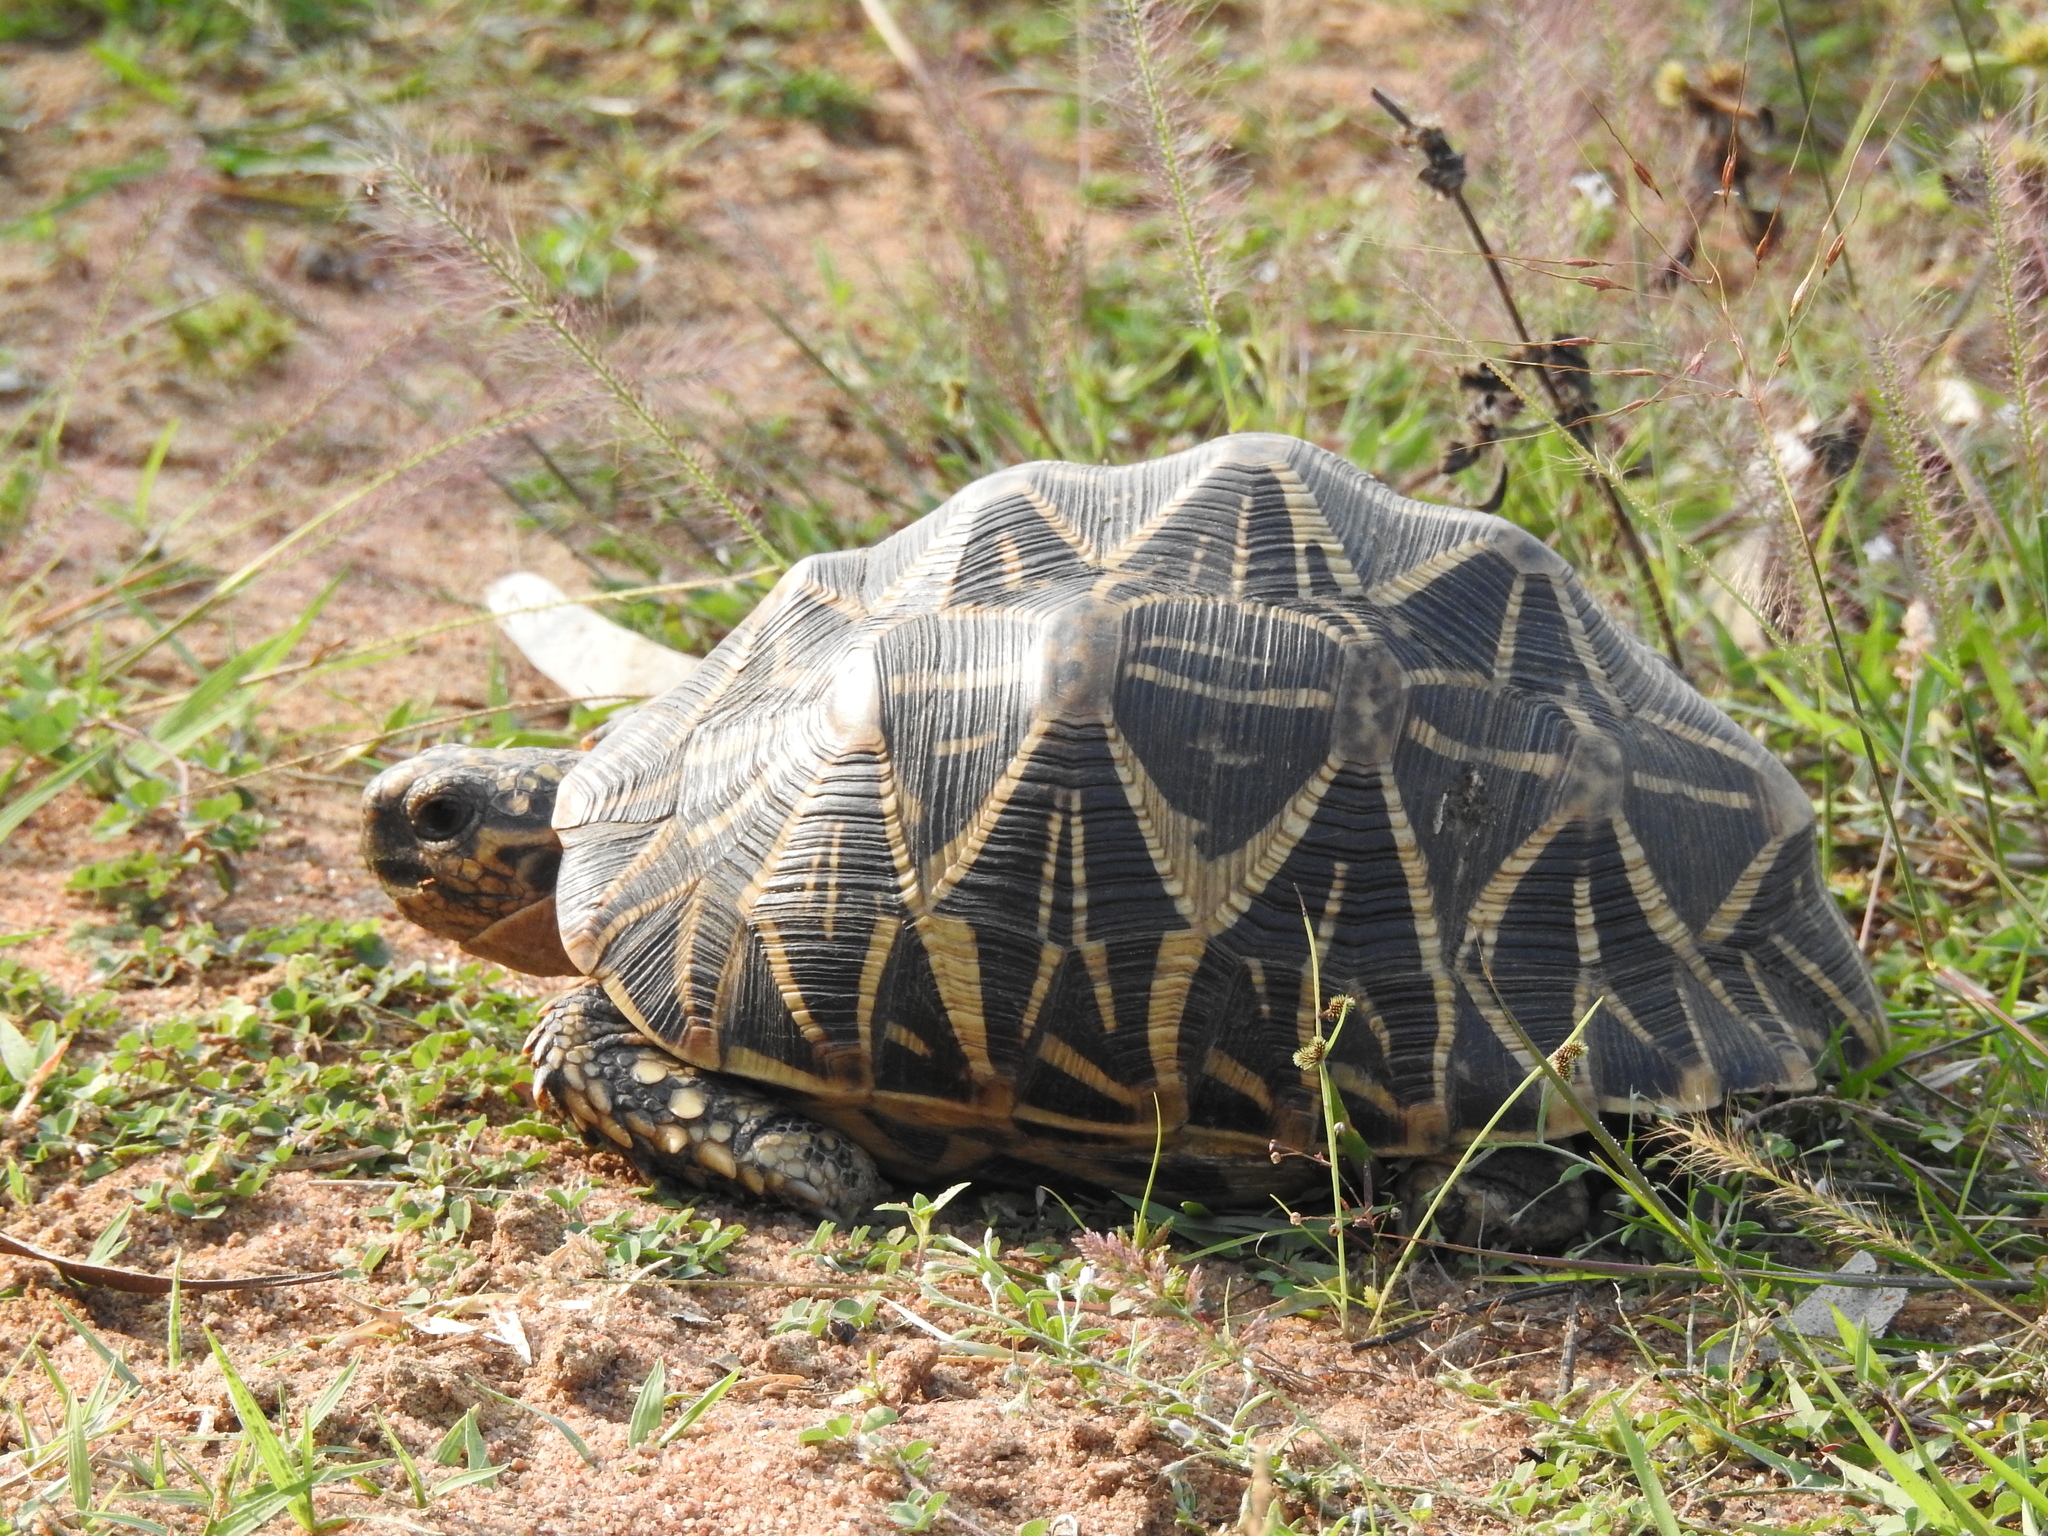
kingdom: Animalia
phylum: Chordata
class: Testudines
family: Testudinidae
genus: Geochelone
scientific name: Geochelone elegans
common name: Indian star tortoise
